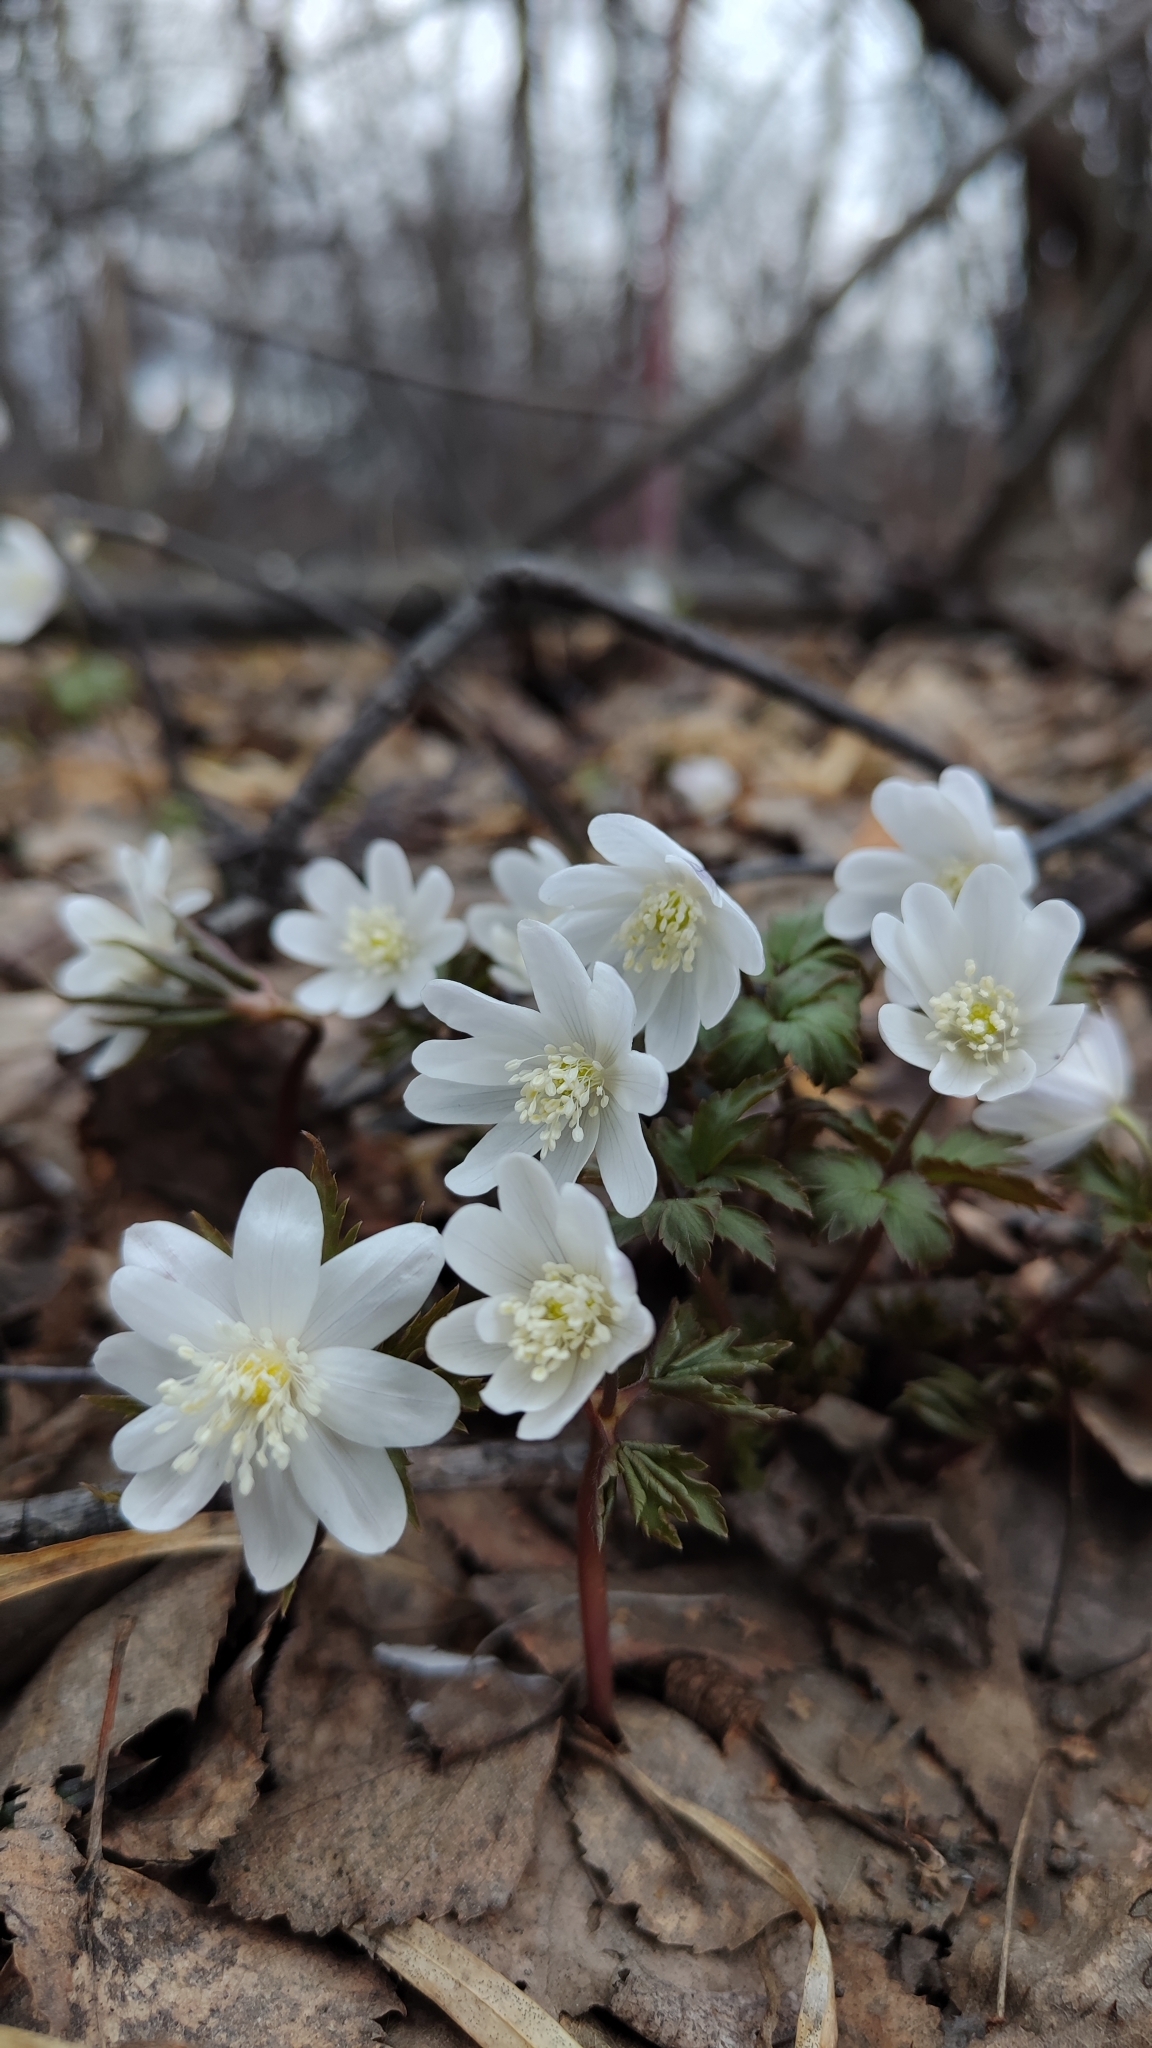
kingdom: Plantae
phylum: Tracheophyta
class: Magnoliopsida
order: Ranunculales
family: Ranunculaceae
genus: Anemone
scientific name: Anemone altaica
